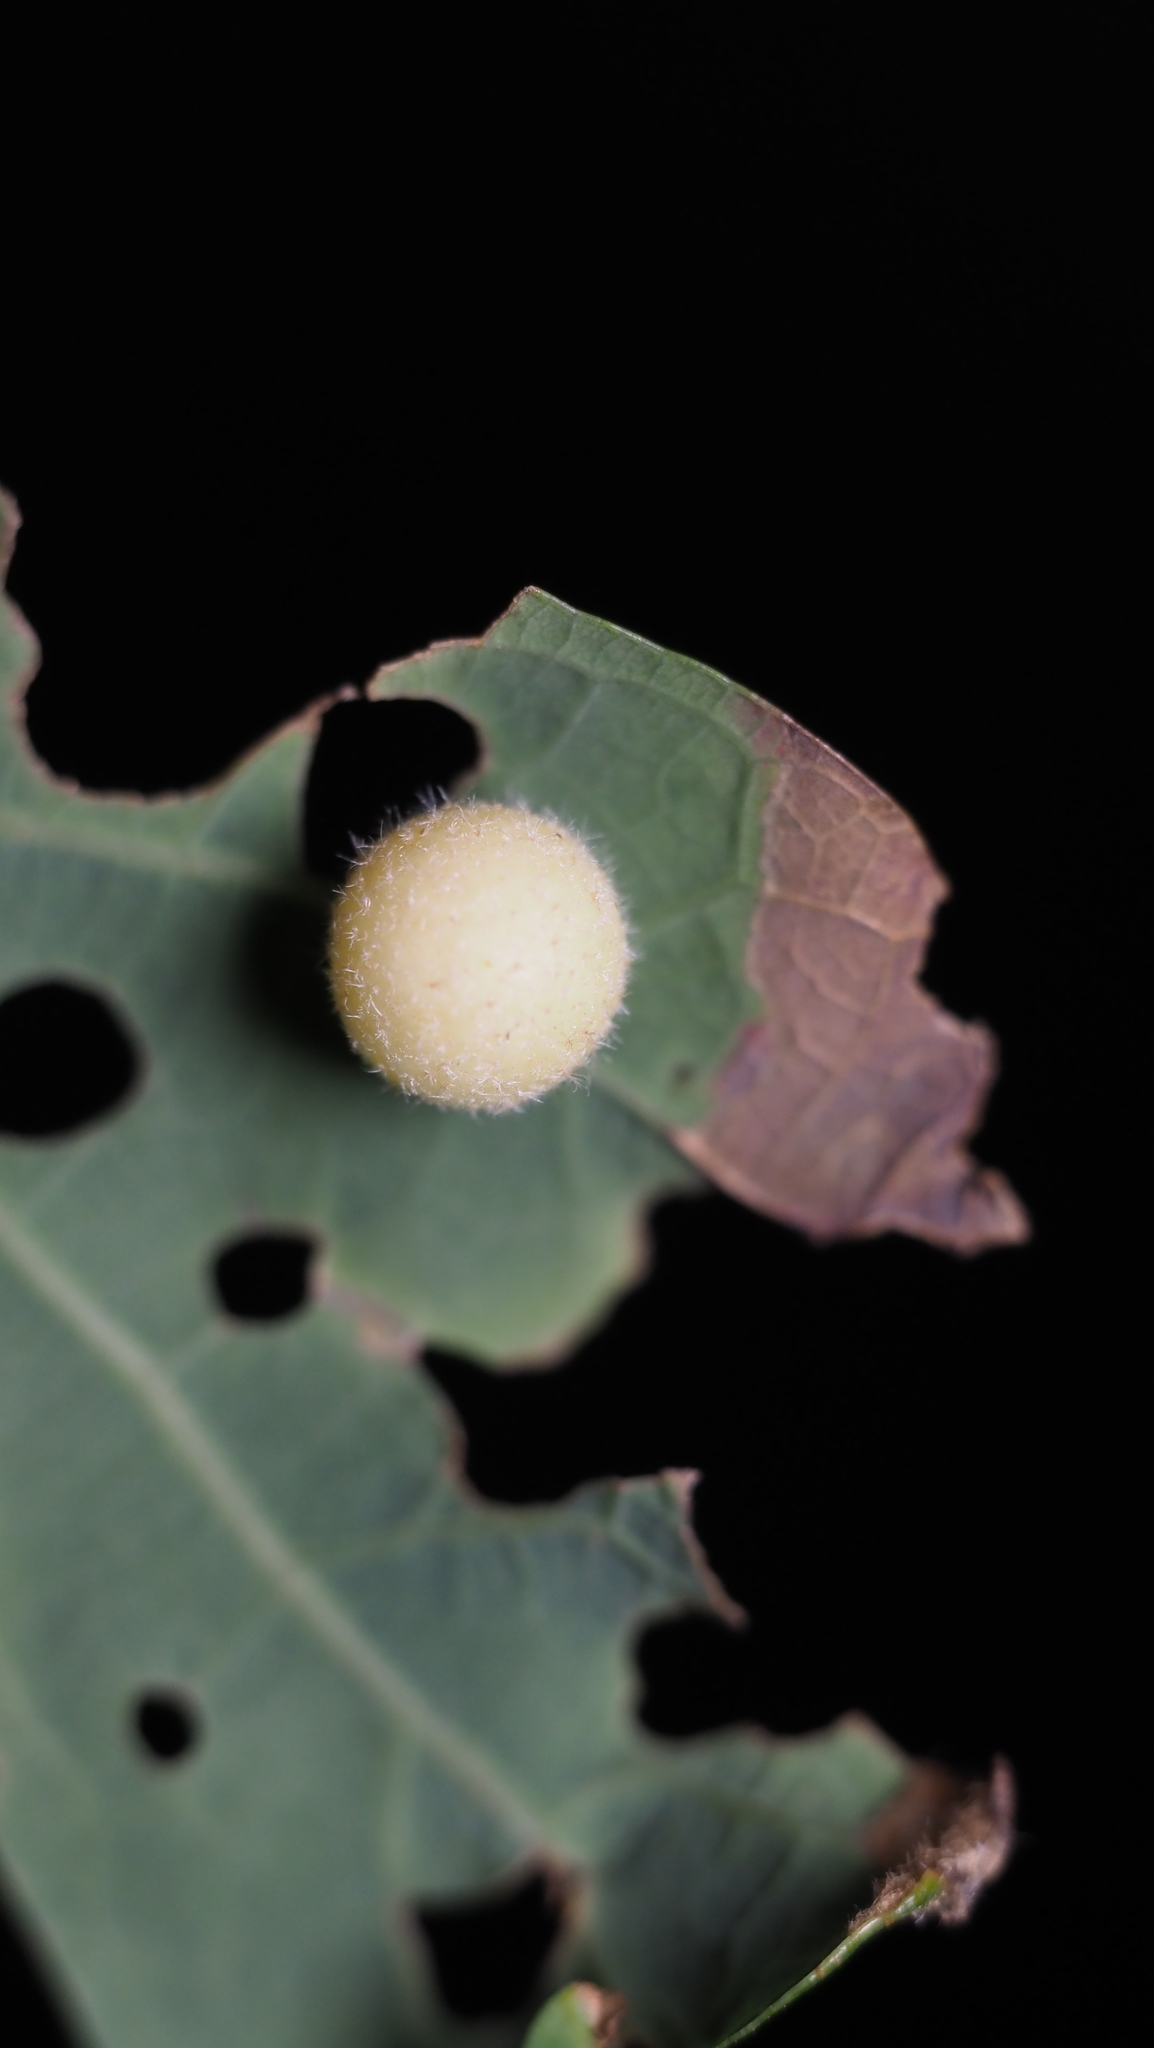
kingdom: Animalia
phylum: Arthropoda
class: Insecta
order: Hymenoptera
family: Cynipidae
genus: Philonix
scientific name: Philonix fulvicollis
